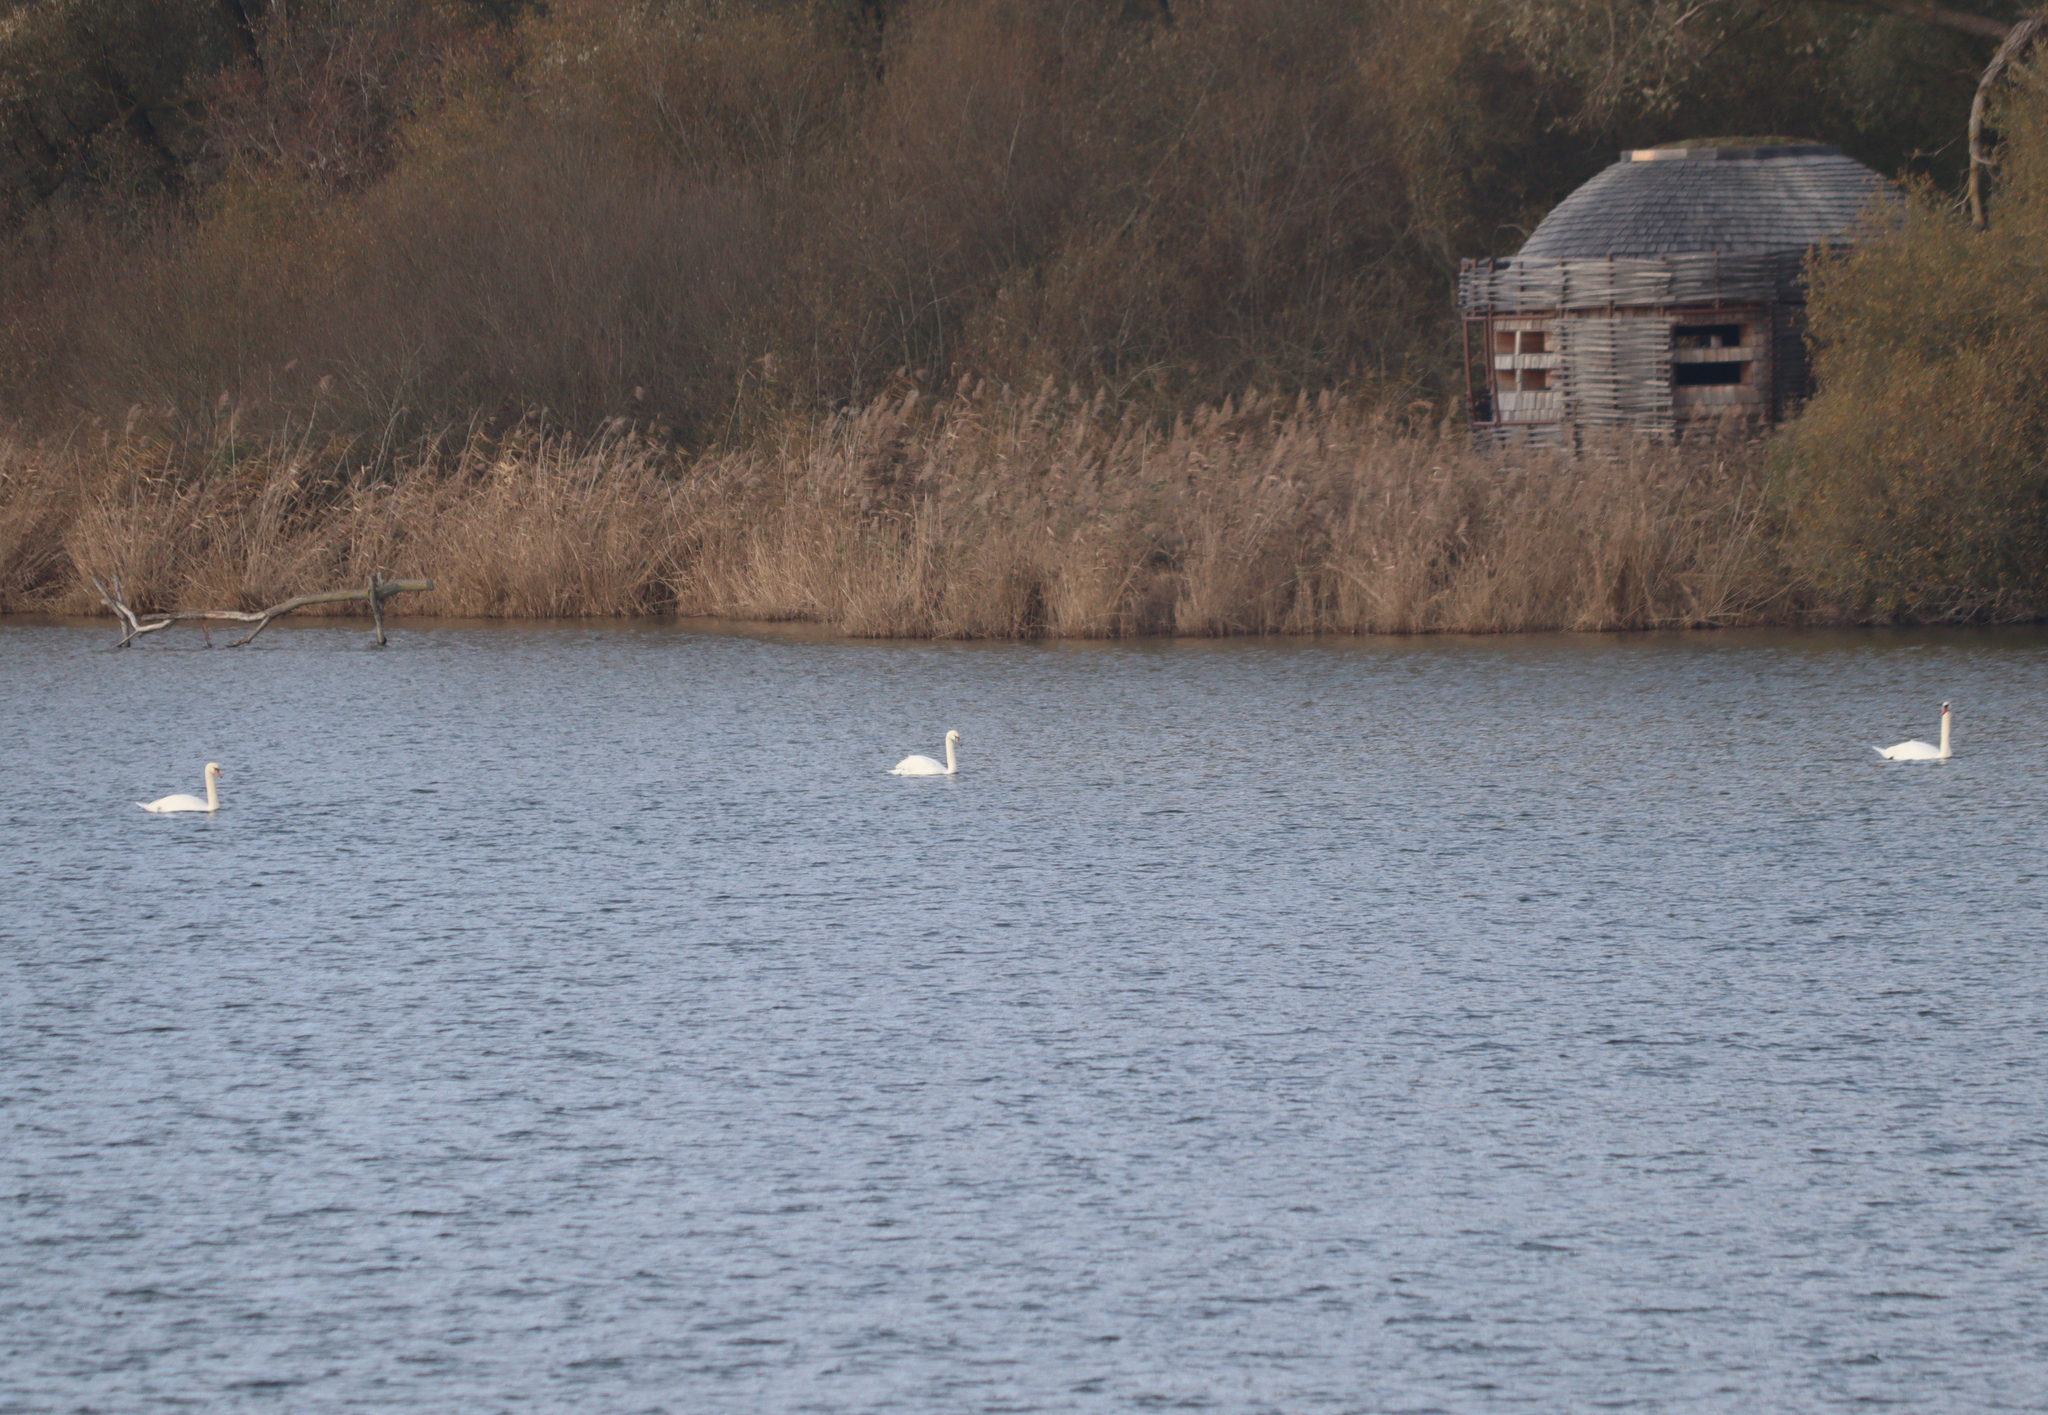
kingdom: Animalia
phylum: Chordata
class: Aves
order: Anseriformes
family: Anatidae
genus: Cygnus
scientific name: Cygnus olor
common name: Mute swan
